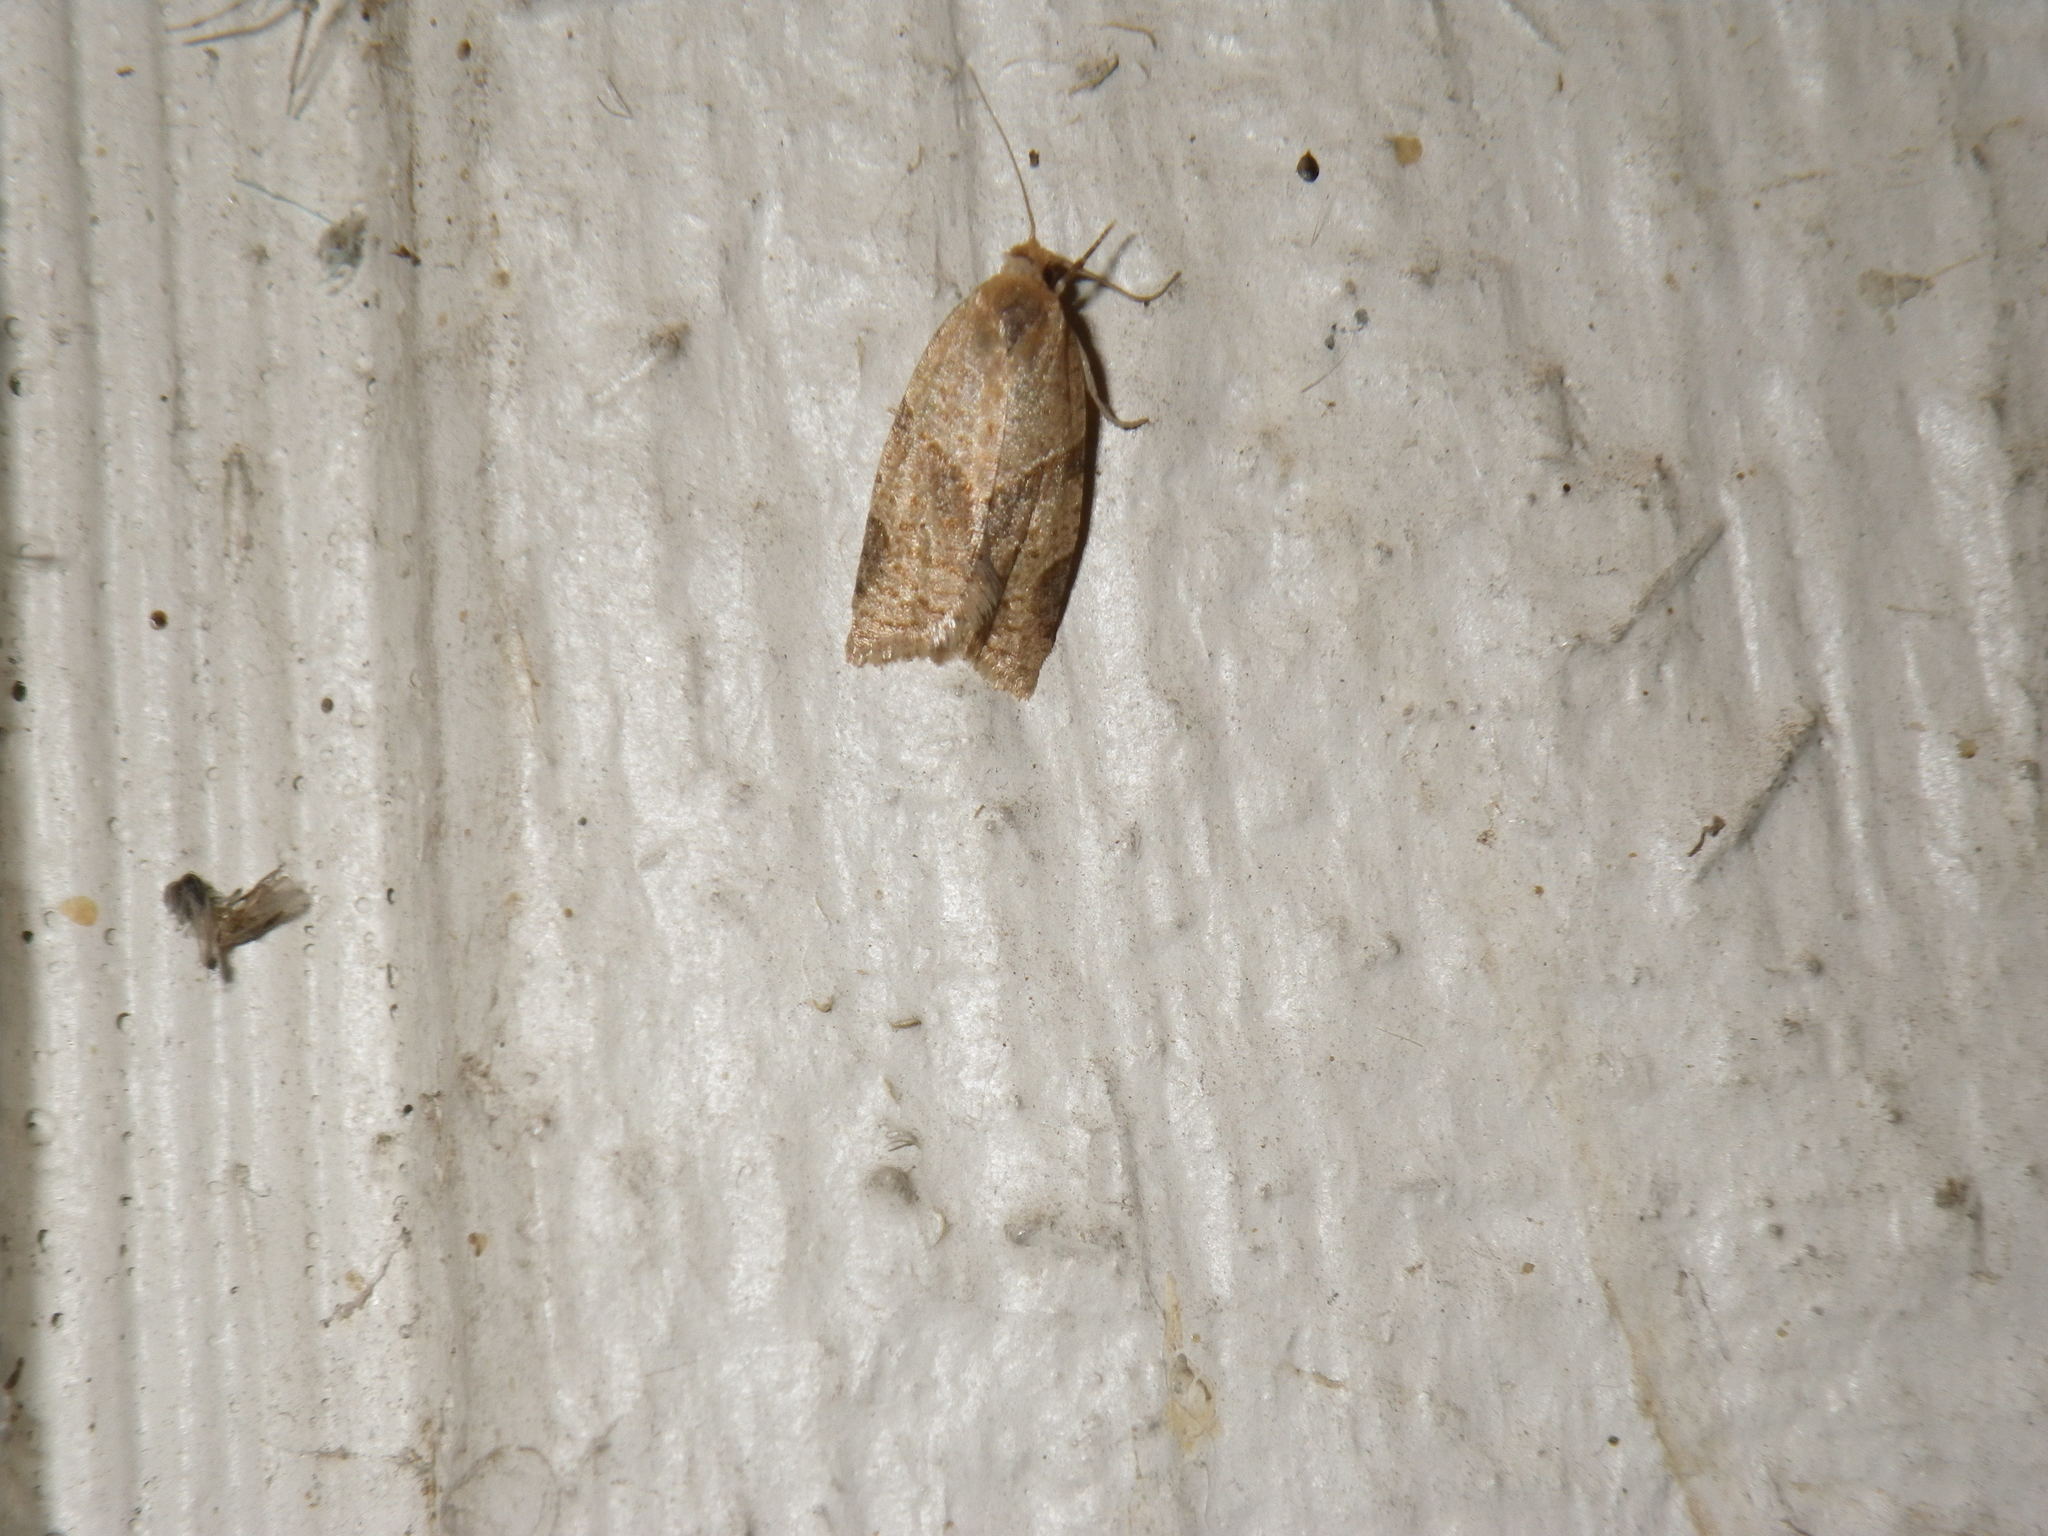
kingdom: Animalia
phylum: Arthropoda
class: Insecta
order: Lepidoptera
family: Tortricidae
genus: Clepsis
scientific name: Clepsis peritana
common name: Garden tortrix
